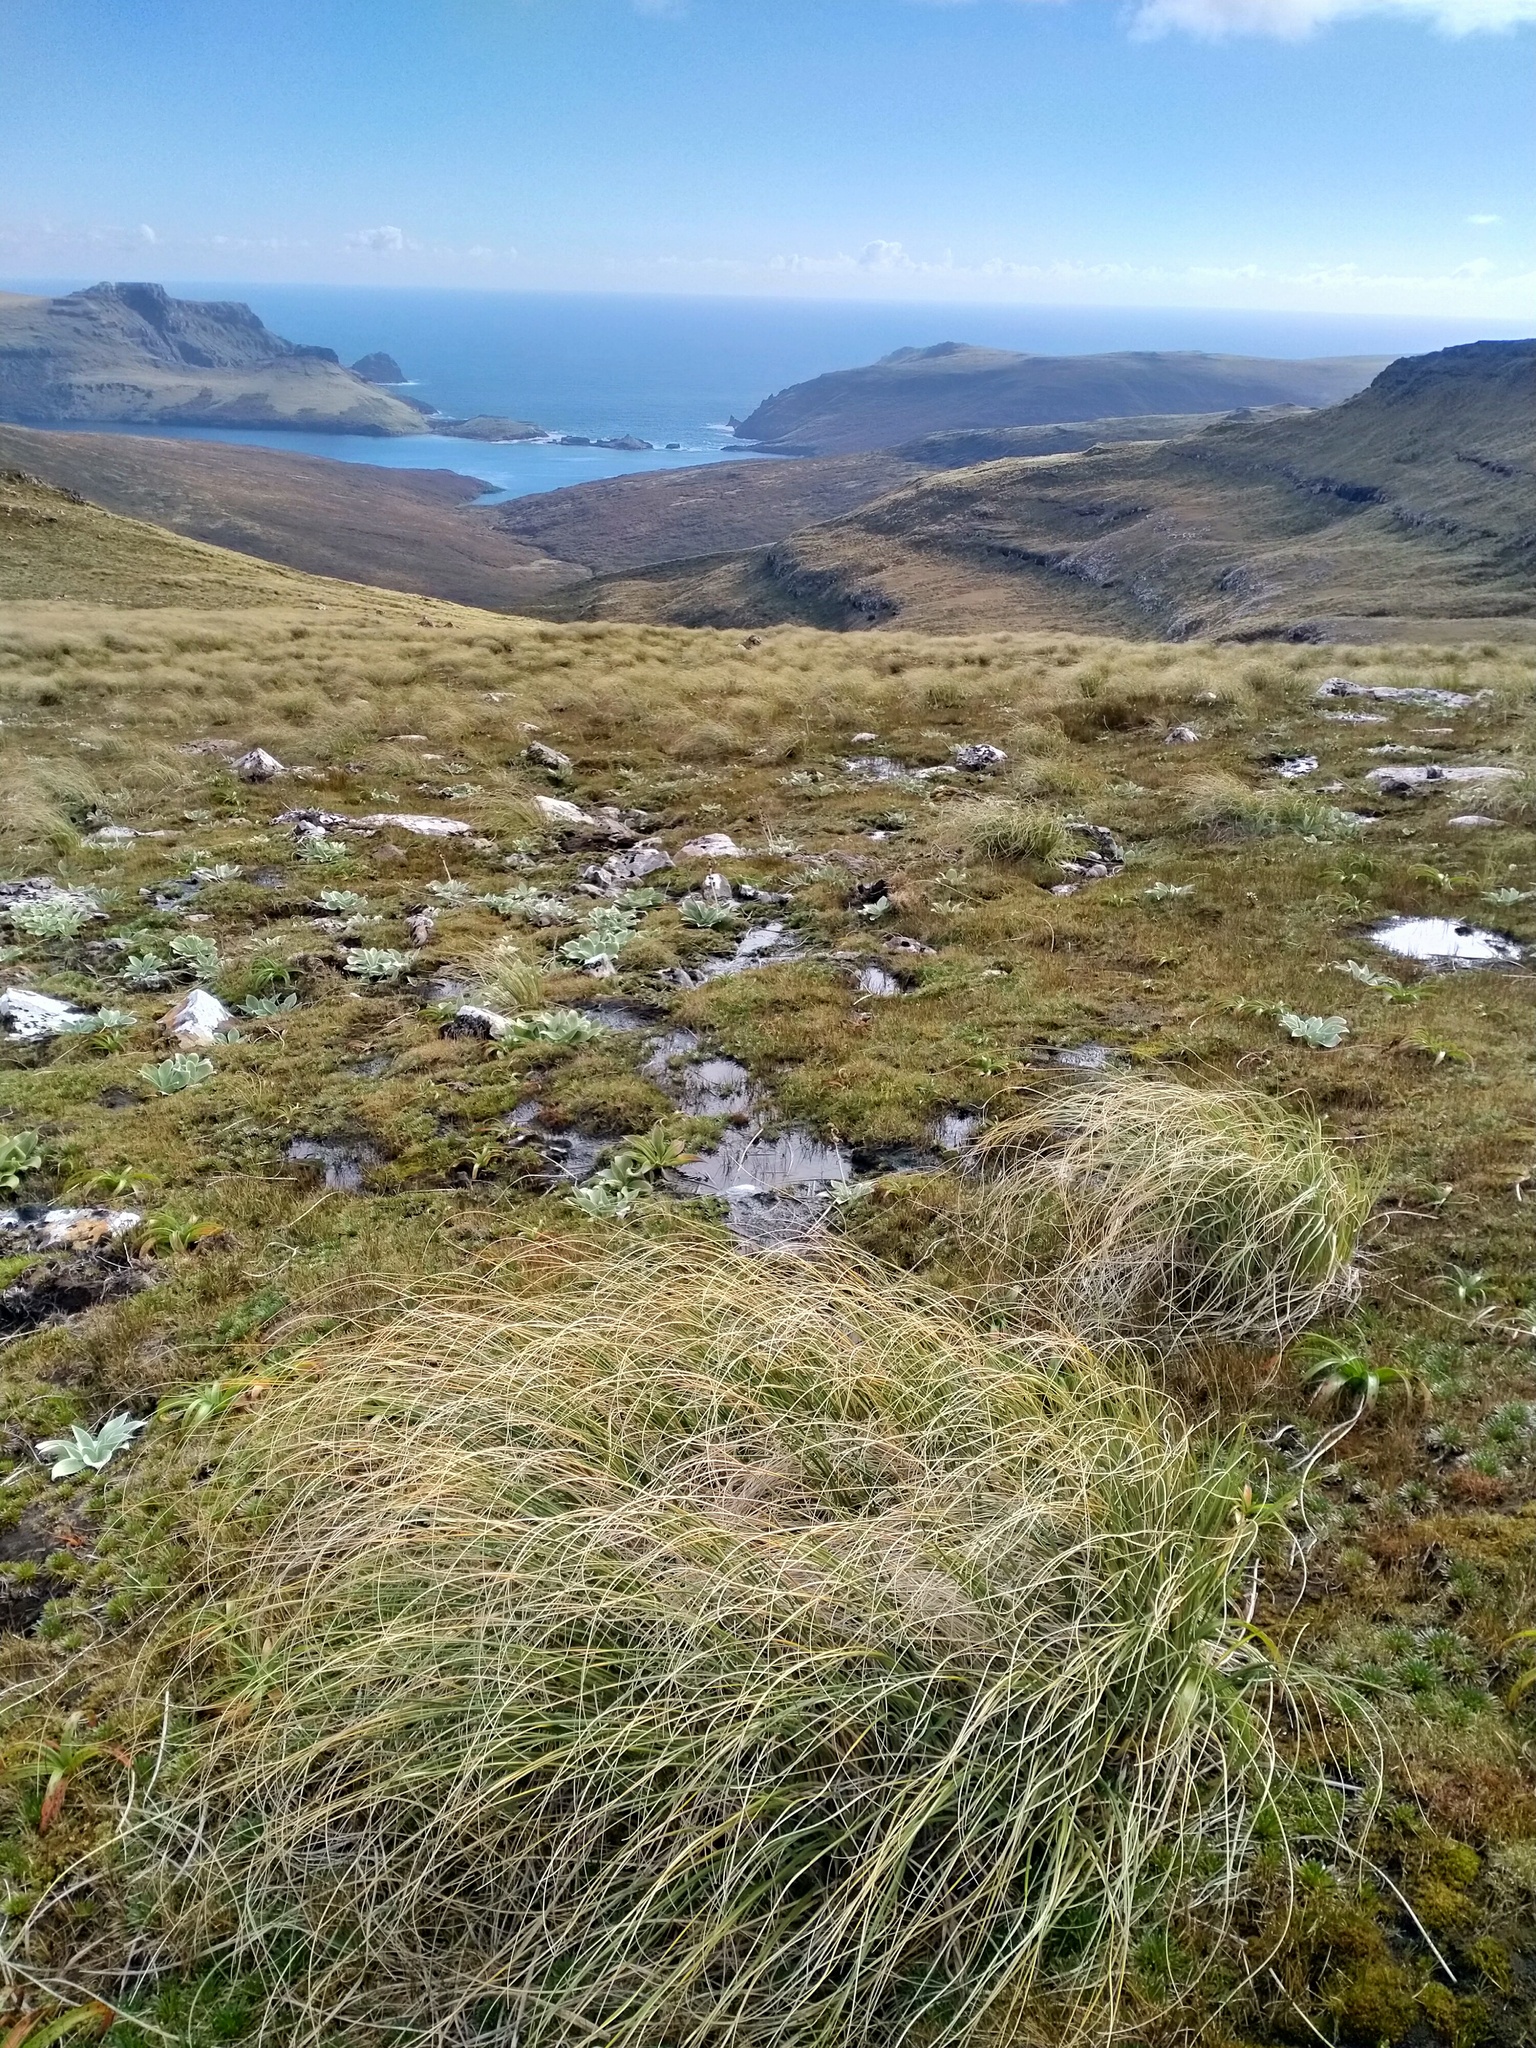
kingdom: Plantae
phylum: Tracheophyta
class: Liliopsida
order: Poales
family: Poaceae
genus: Chionochloa
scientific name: Chionochloa antarctica
